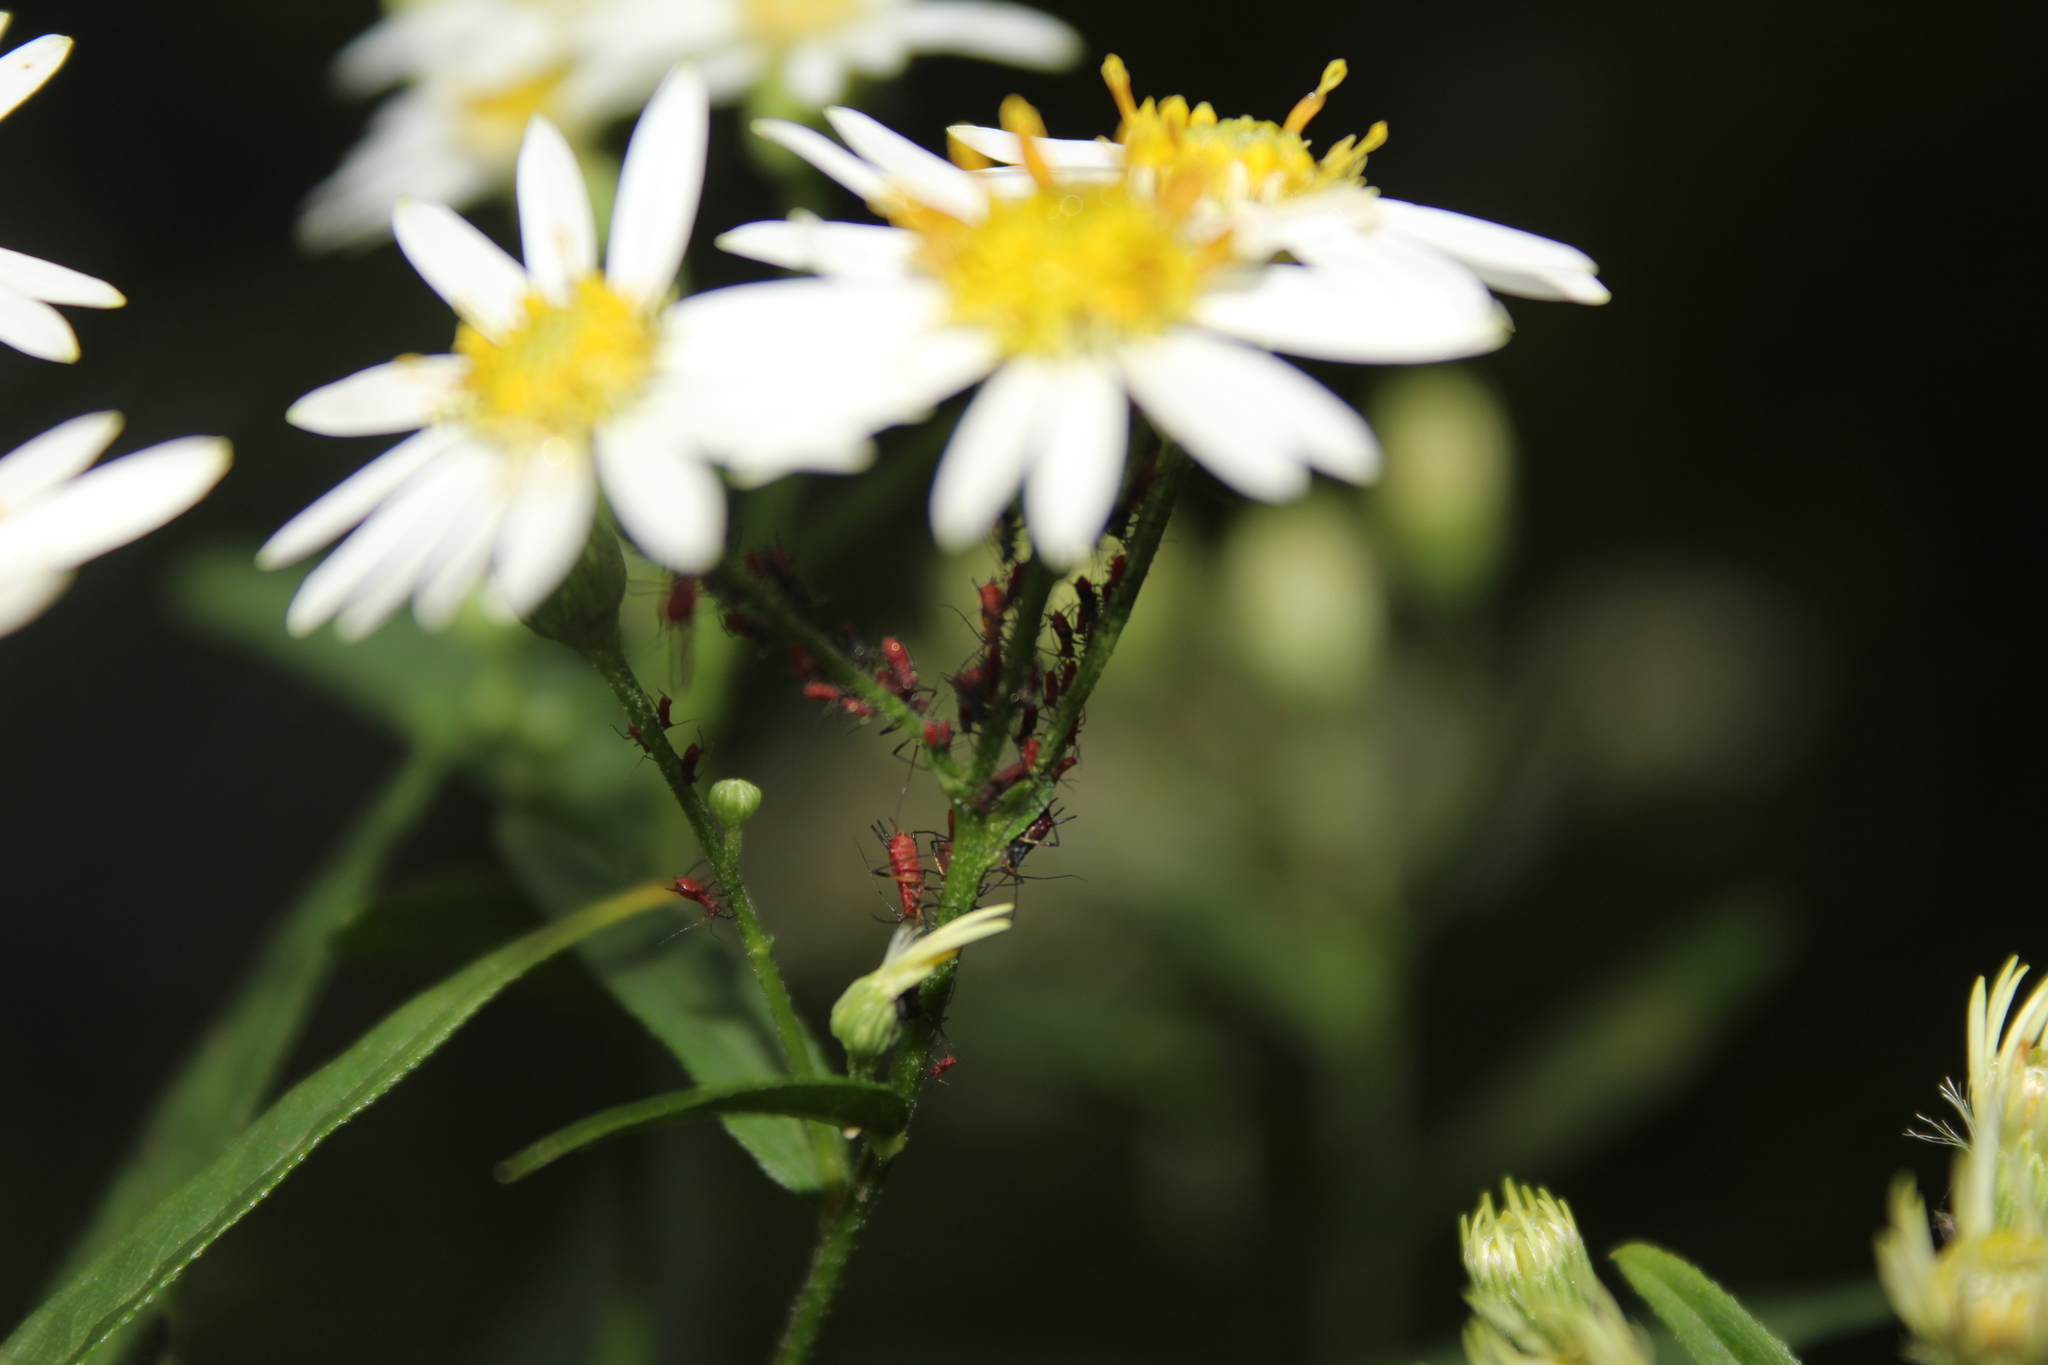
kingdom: Plantae
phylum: Tracheophyta
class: Magnoliopsida
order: Asterales
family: Asteraceae
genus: Doellingeria
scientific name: Doellingeria umbellata
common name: Flat-top white aster
